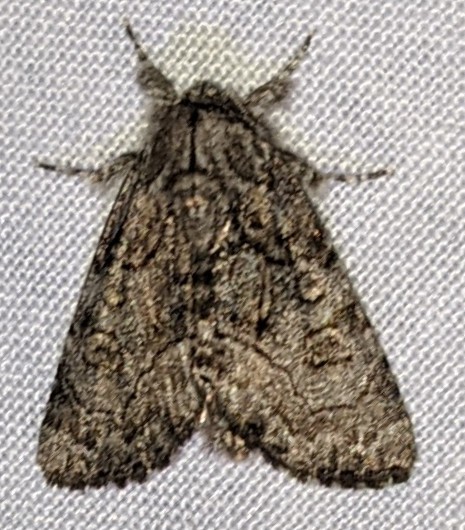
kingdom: Animalia
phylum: Arthropoda
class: Insecta
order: Lepidoptera
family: Noctuidae
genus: Raphia
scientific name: Raphia frater
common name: Brother
